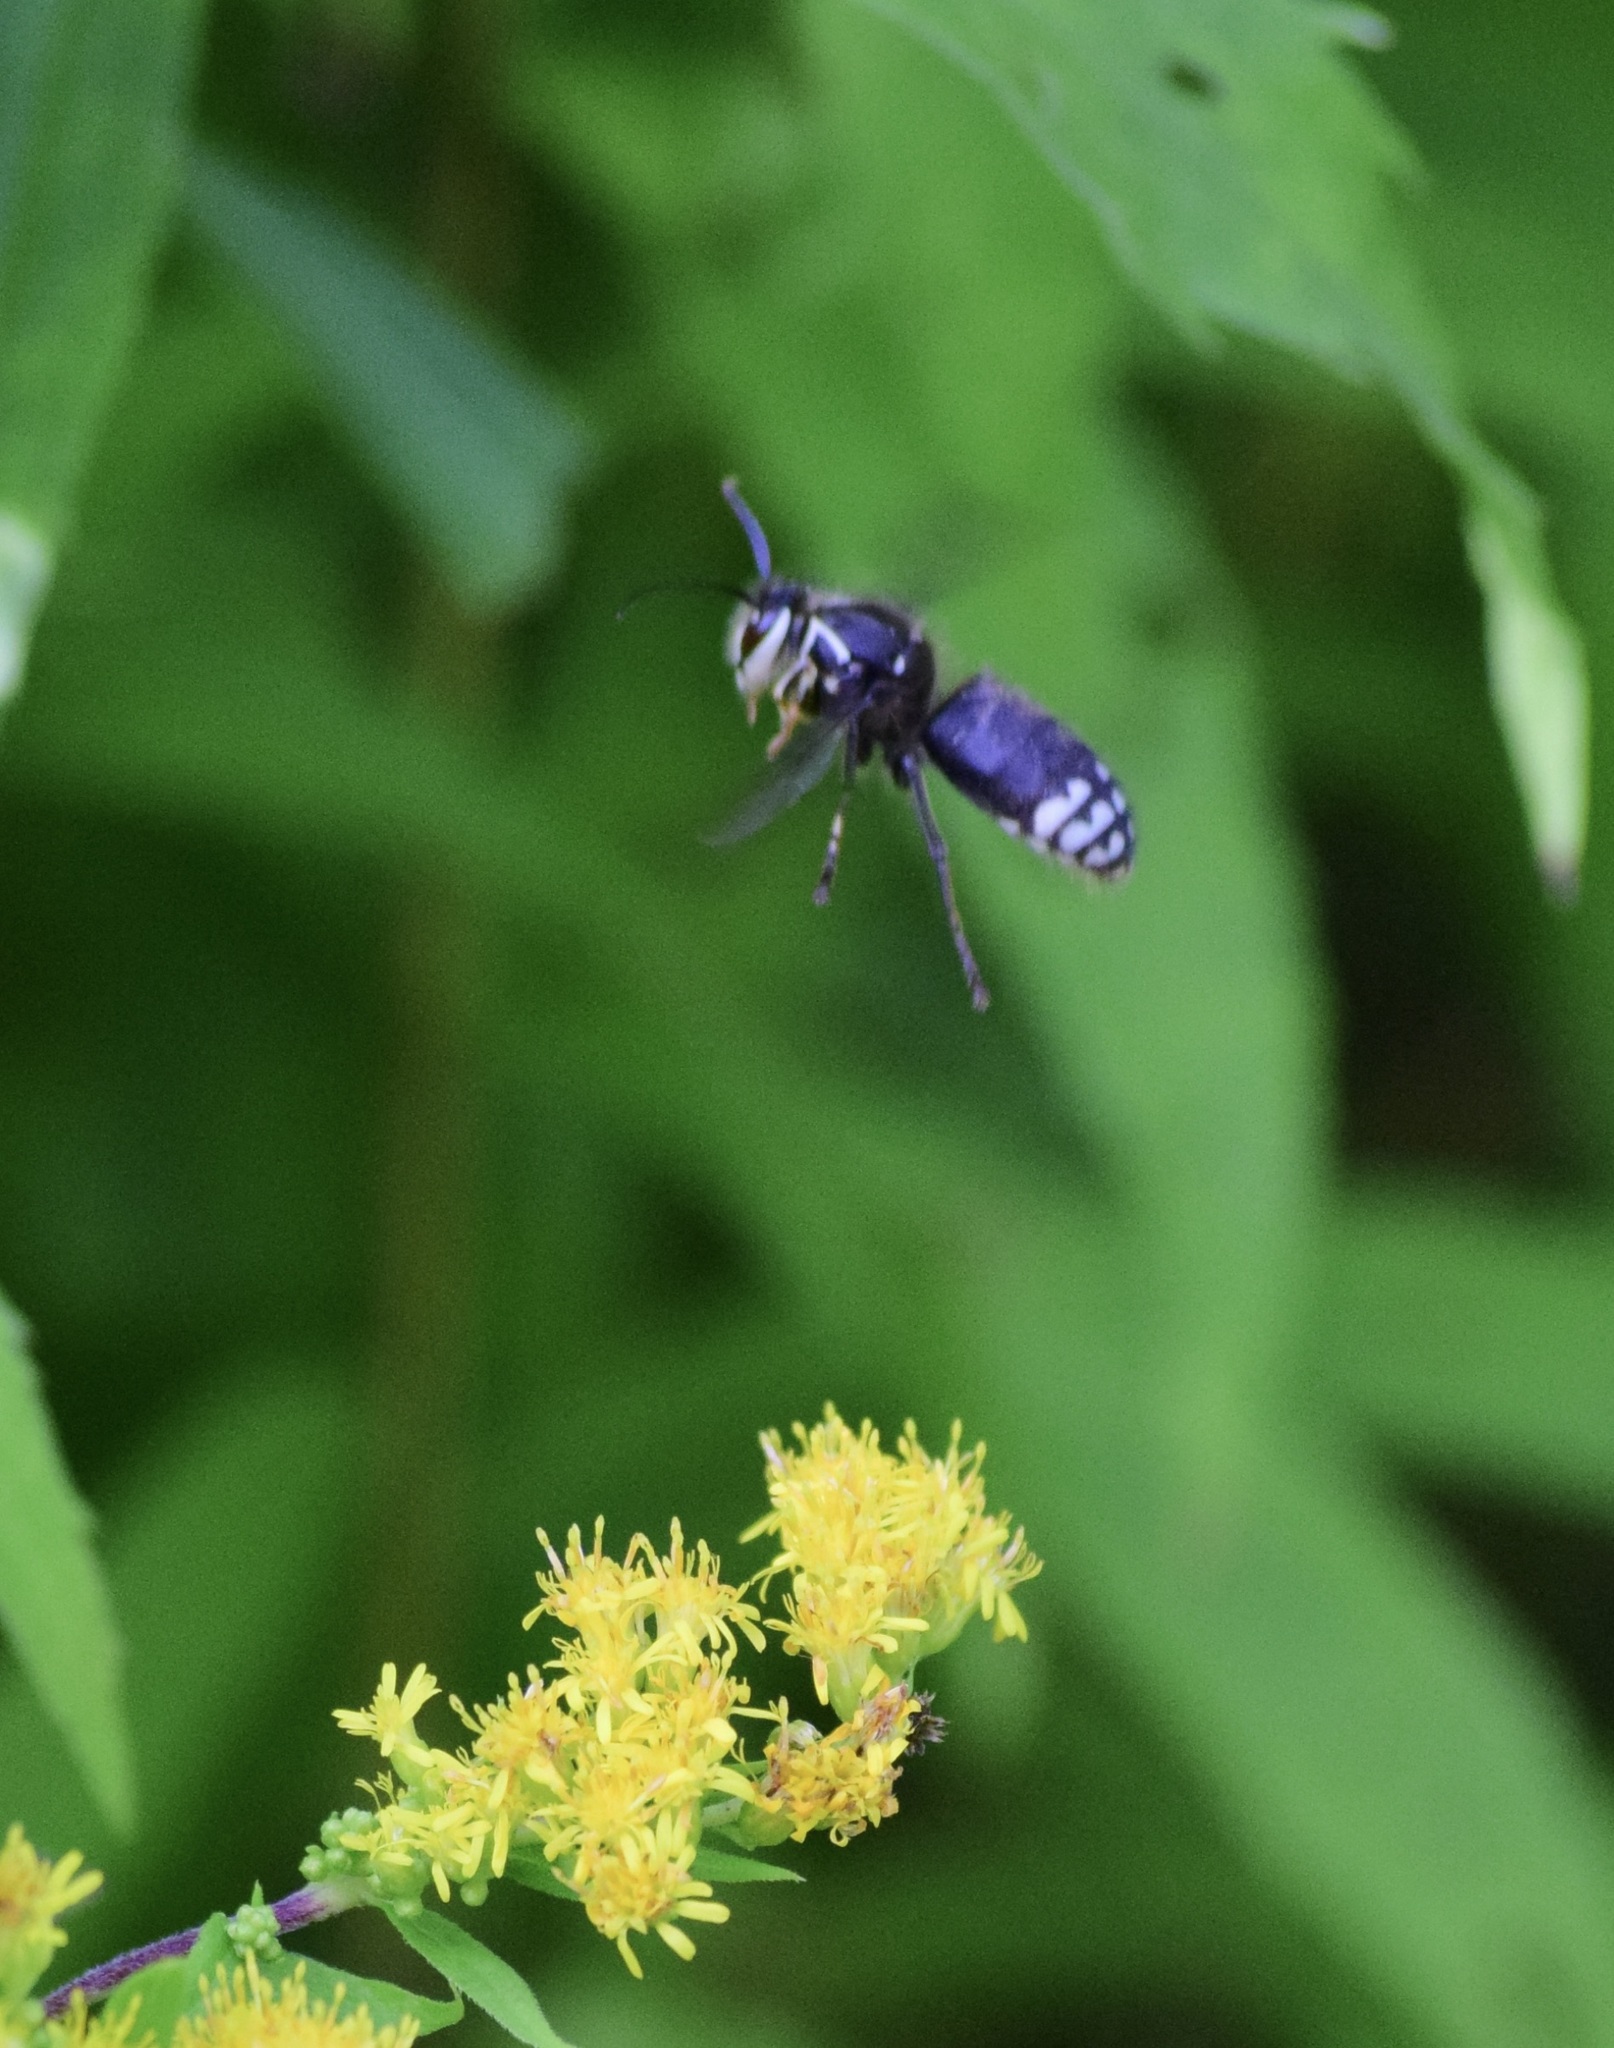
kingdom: Animalia
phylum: Arthropoda
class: Insecta
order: Hymenoptera
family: Vespidae
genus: Dolichovespula
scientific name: Dolichovespula maculata
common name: Bald-faced hornet
